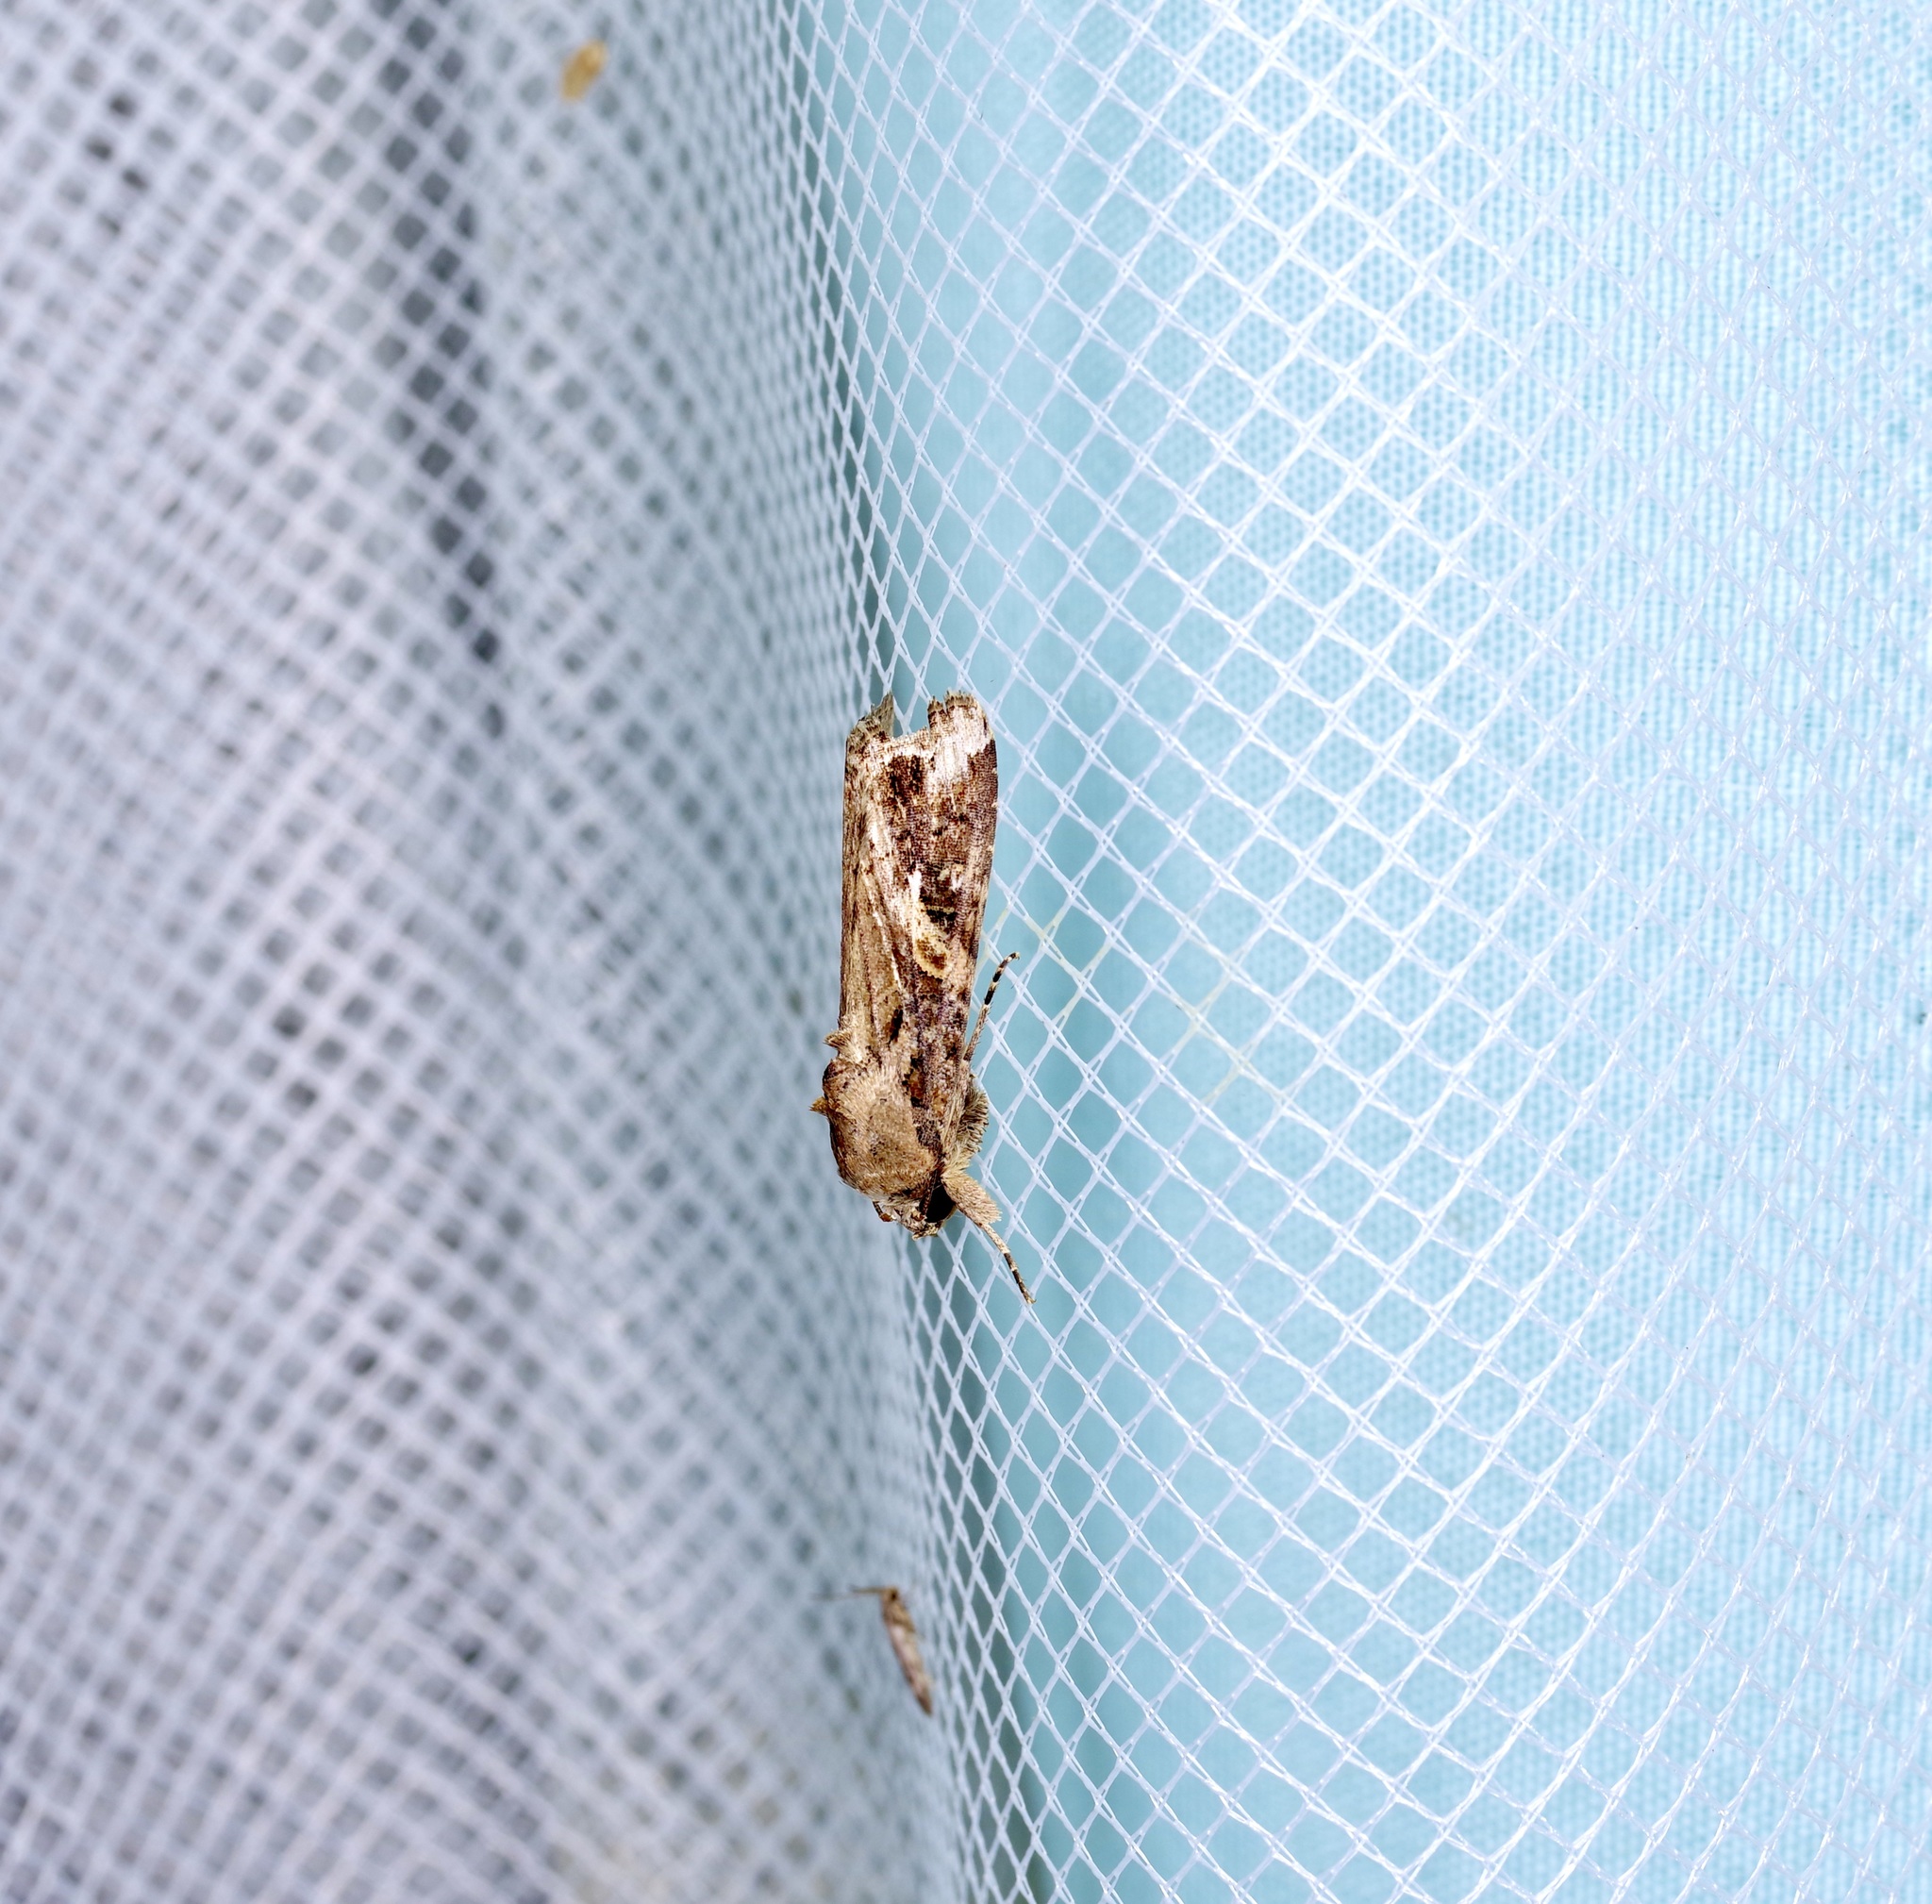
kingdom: Animalia
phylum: Arthropoda
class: Insecta
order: Lepidoptera
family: Noctuidae
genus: Spodoptera
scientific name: Spodoptera frugiperda
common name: Fall armyworm
